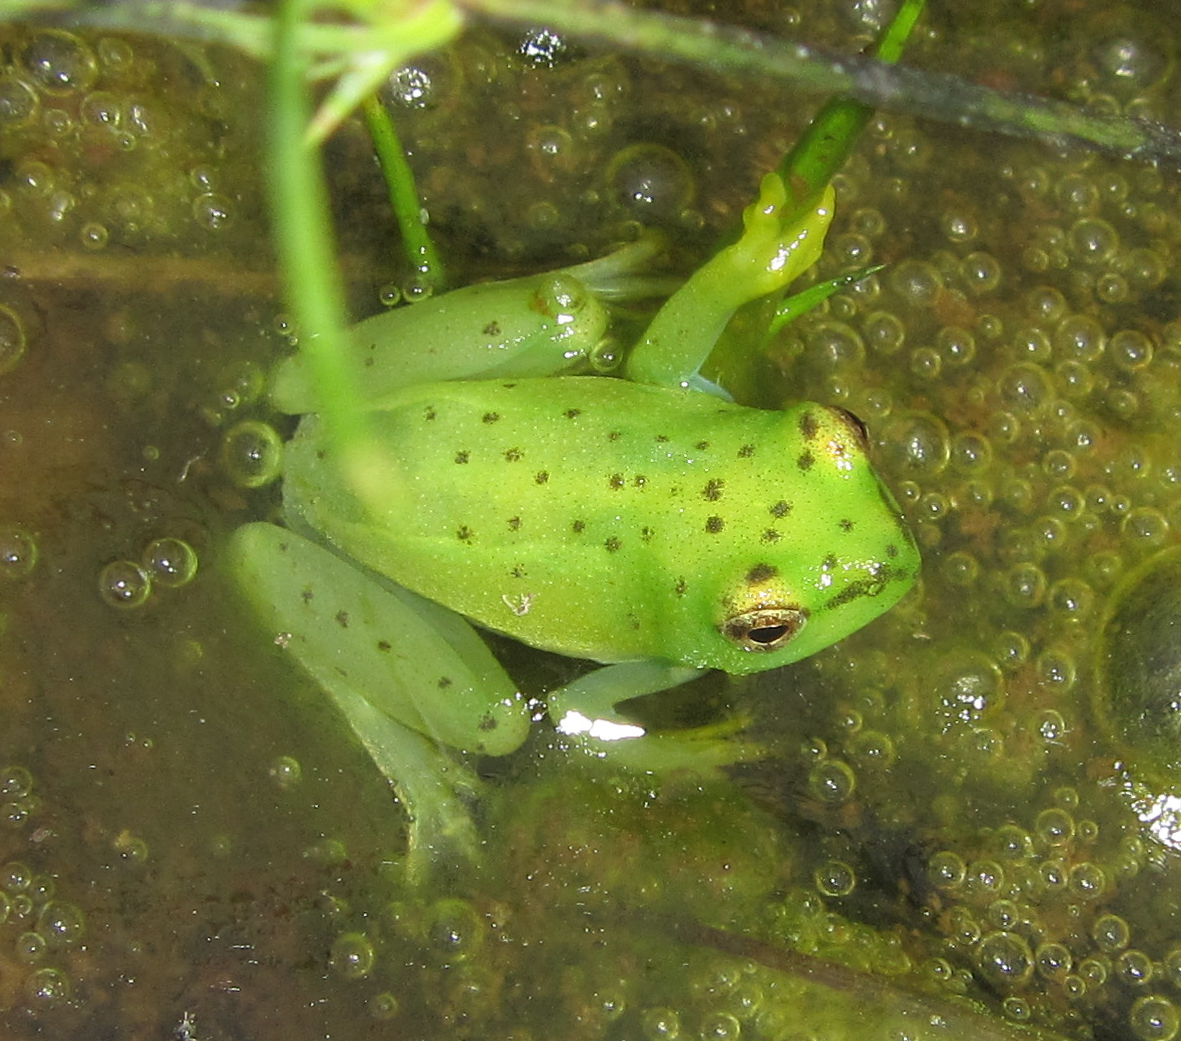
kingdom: Animalia
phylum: Chordata
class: Amphibia
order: Anura
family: Hyperoliidae
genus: Hyperolius
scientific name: Hyperolius pusillus
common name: Water lily reed frog
